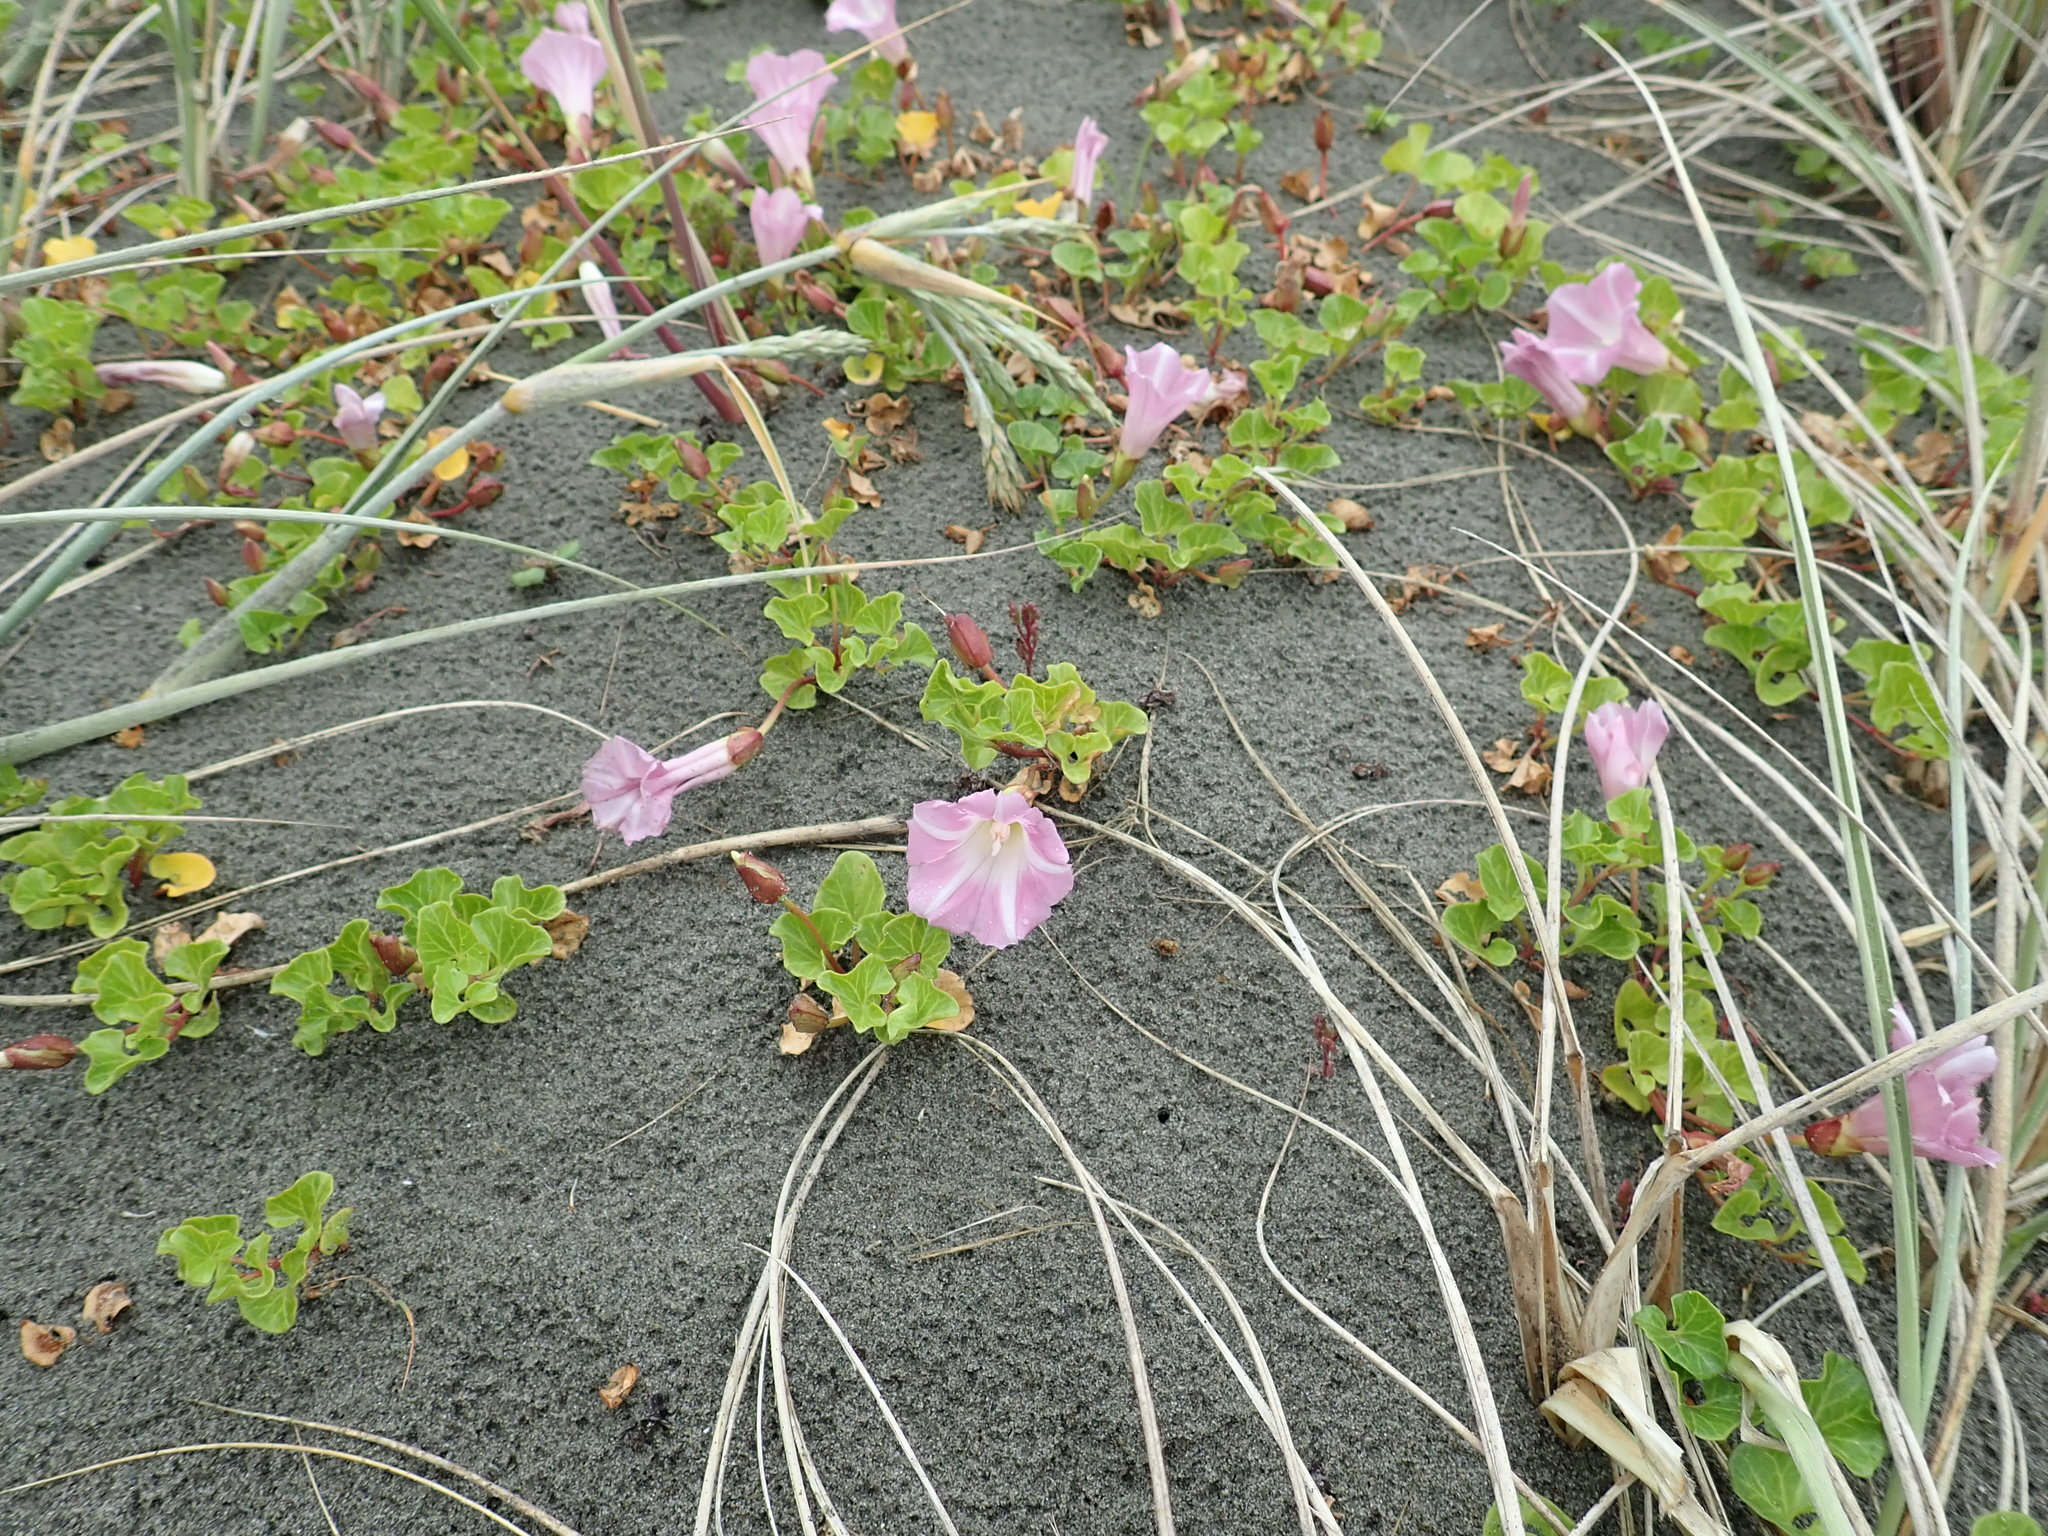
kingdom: Plantae
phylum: Tracheophyta
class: Magnoliopsida
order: Solanales
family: Convolvulaceae
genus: Calystegia
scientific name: Calystegia soldanella
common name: Sea bindweed
